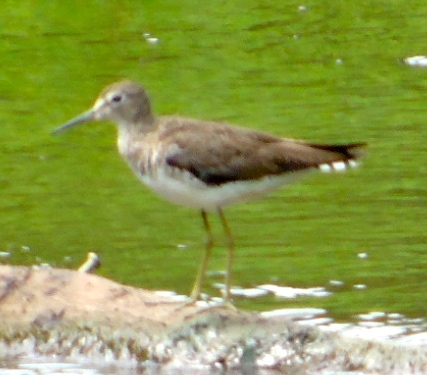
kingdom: Animalia
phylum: Chordata
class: Aves
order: Charadriiformes
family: Scolopacidae
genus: Tringa
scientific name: Tringa solitaria
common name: Solitary sandpiper
